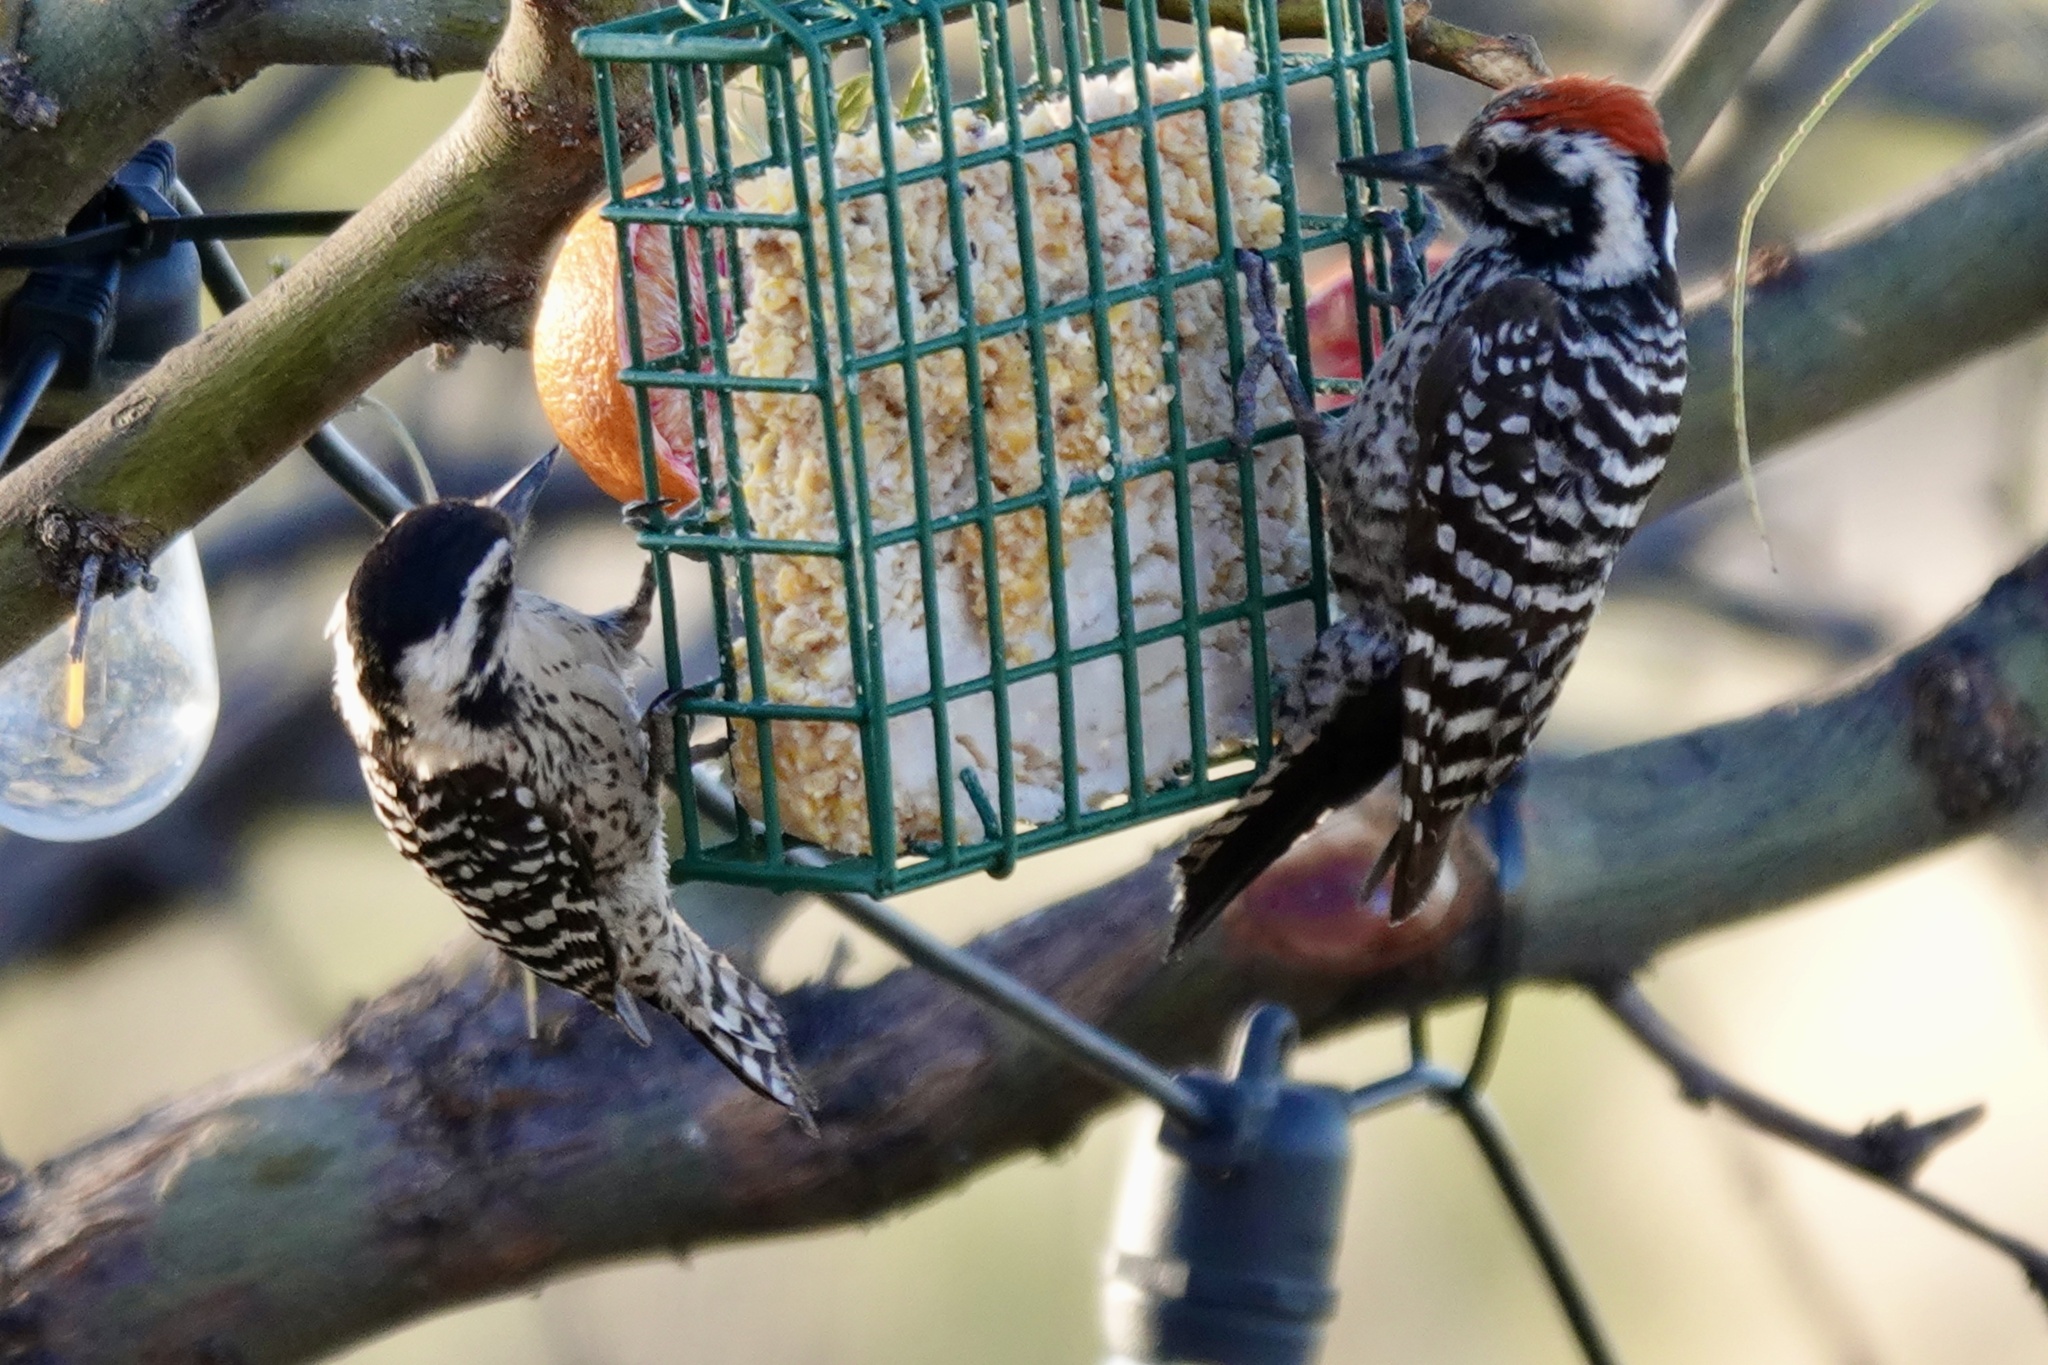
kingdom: Animalia
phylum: Chordata
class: Aves
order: Piciformes
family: Picidae
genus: Dryobates
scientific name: Dryobates scalaris
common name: Ladder-backed woodpecker
